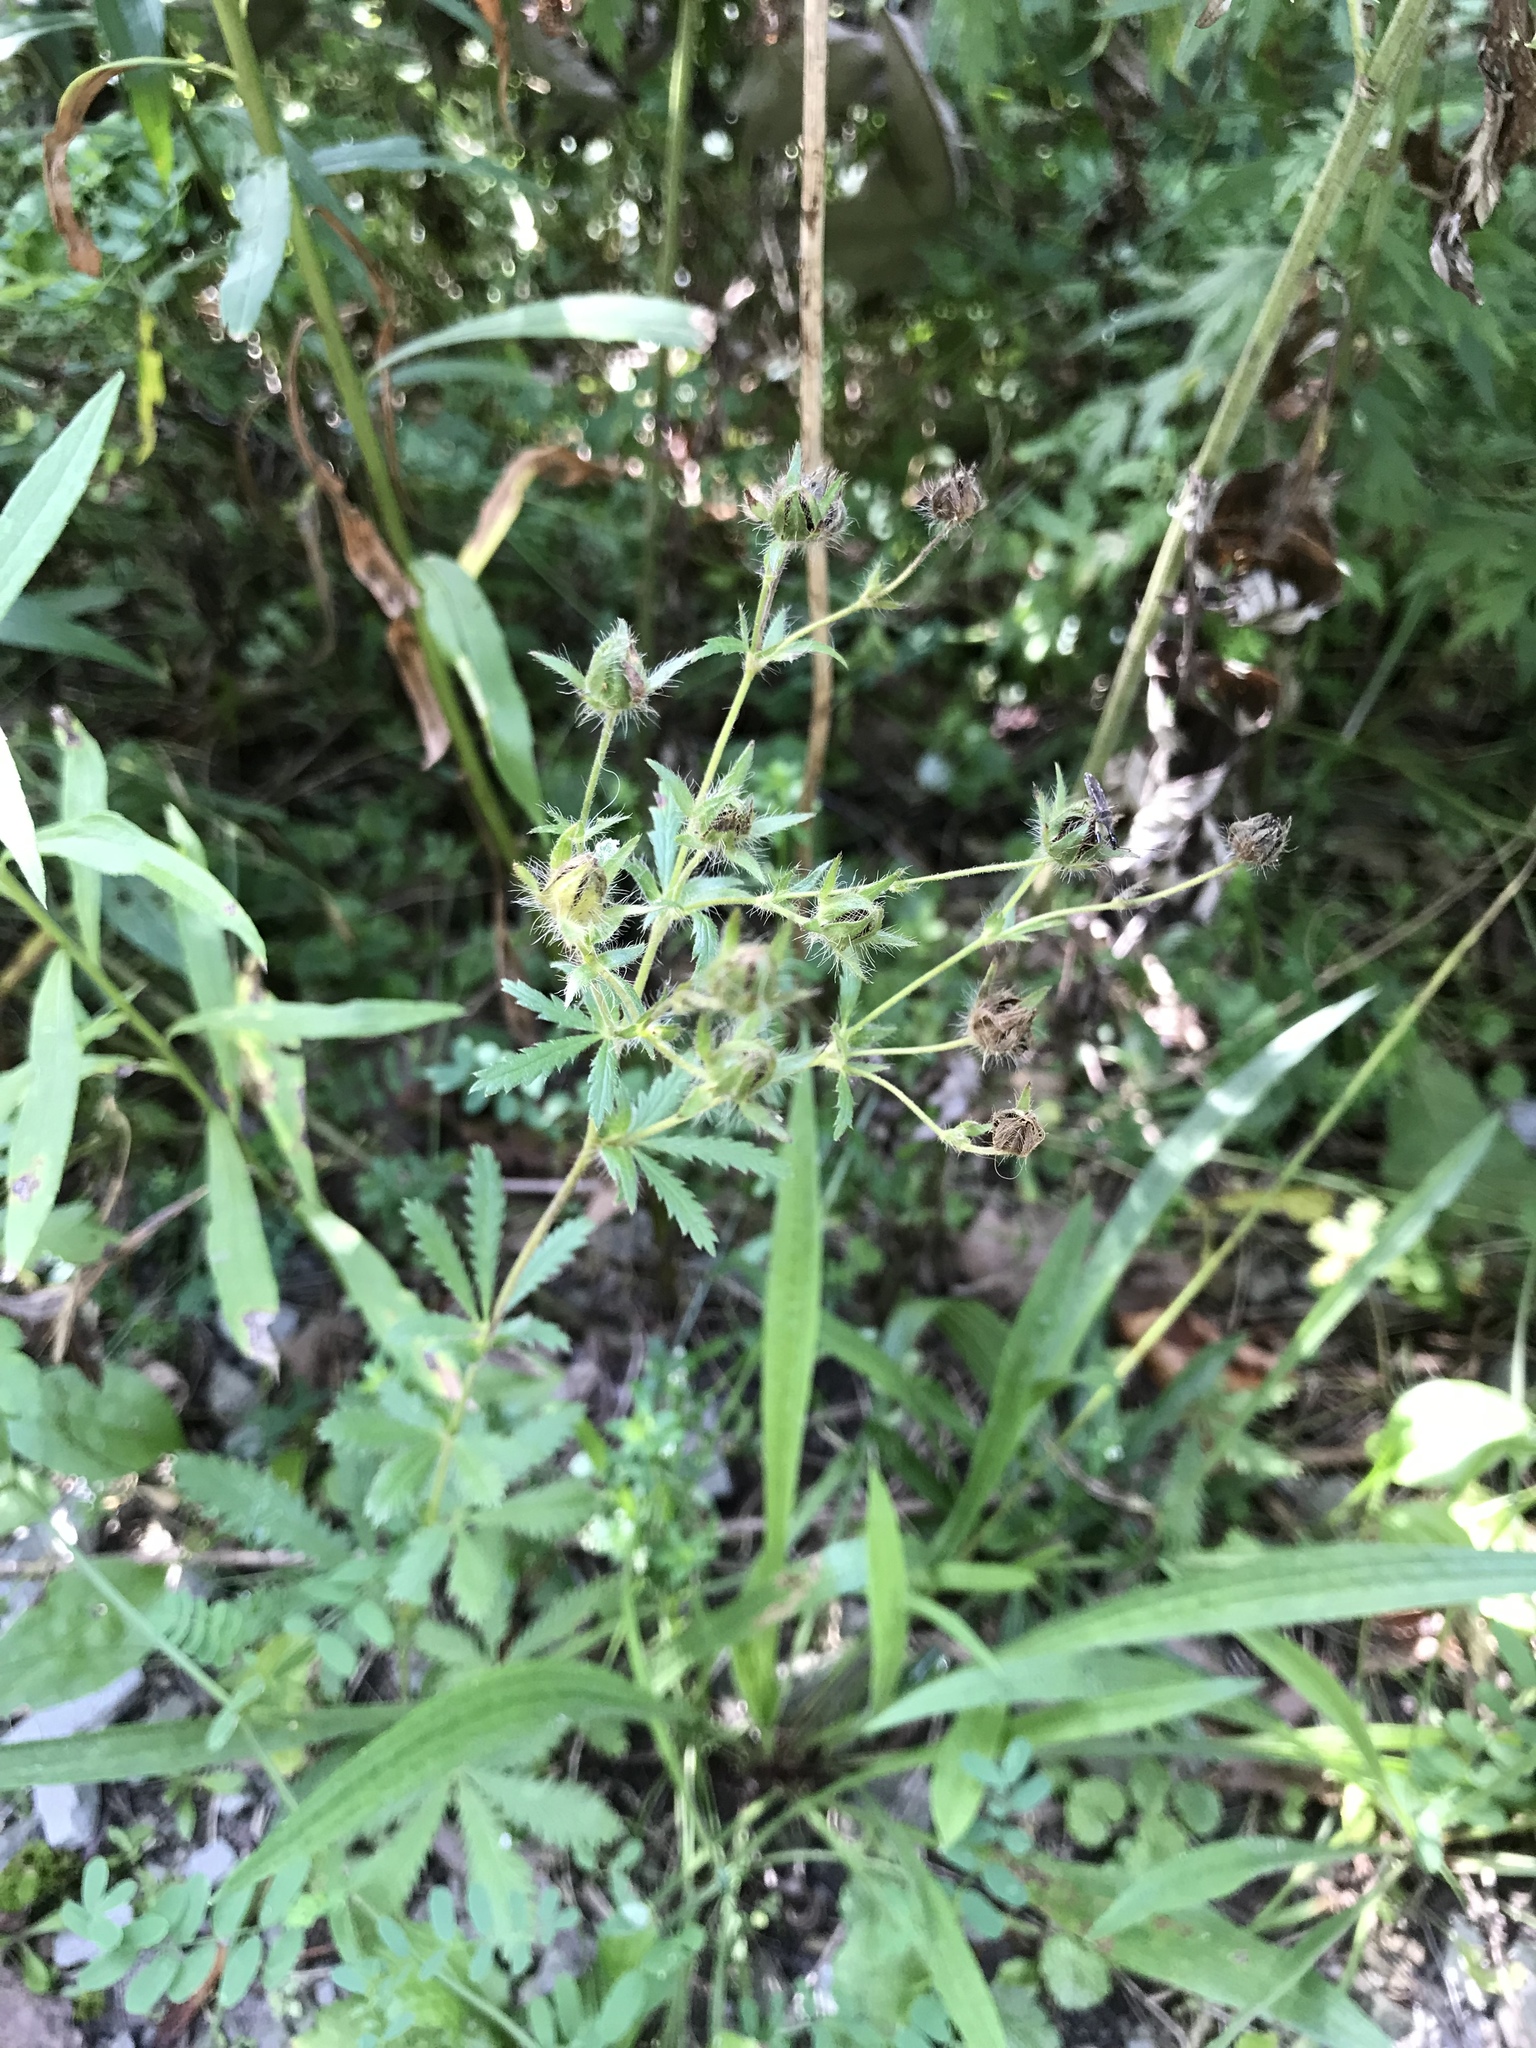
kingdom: Plantae
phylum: Tracheophyta
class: Magnoliopsida
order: Rosales
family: Rosaceae
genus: Potentilla
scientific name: Potentilla recta
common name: Sulphur cinquefoil
